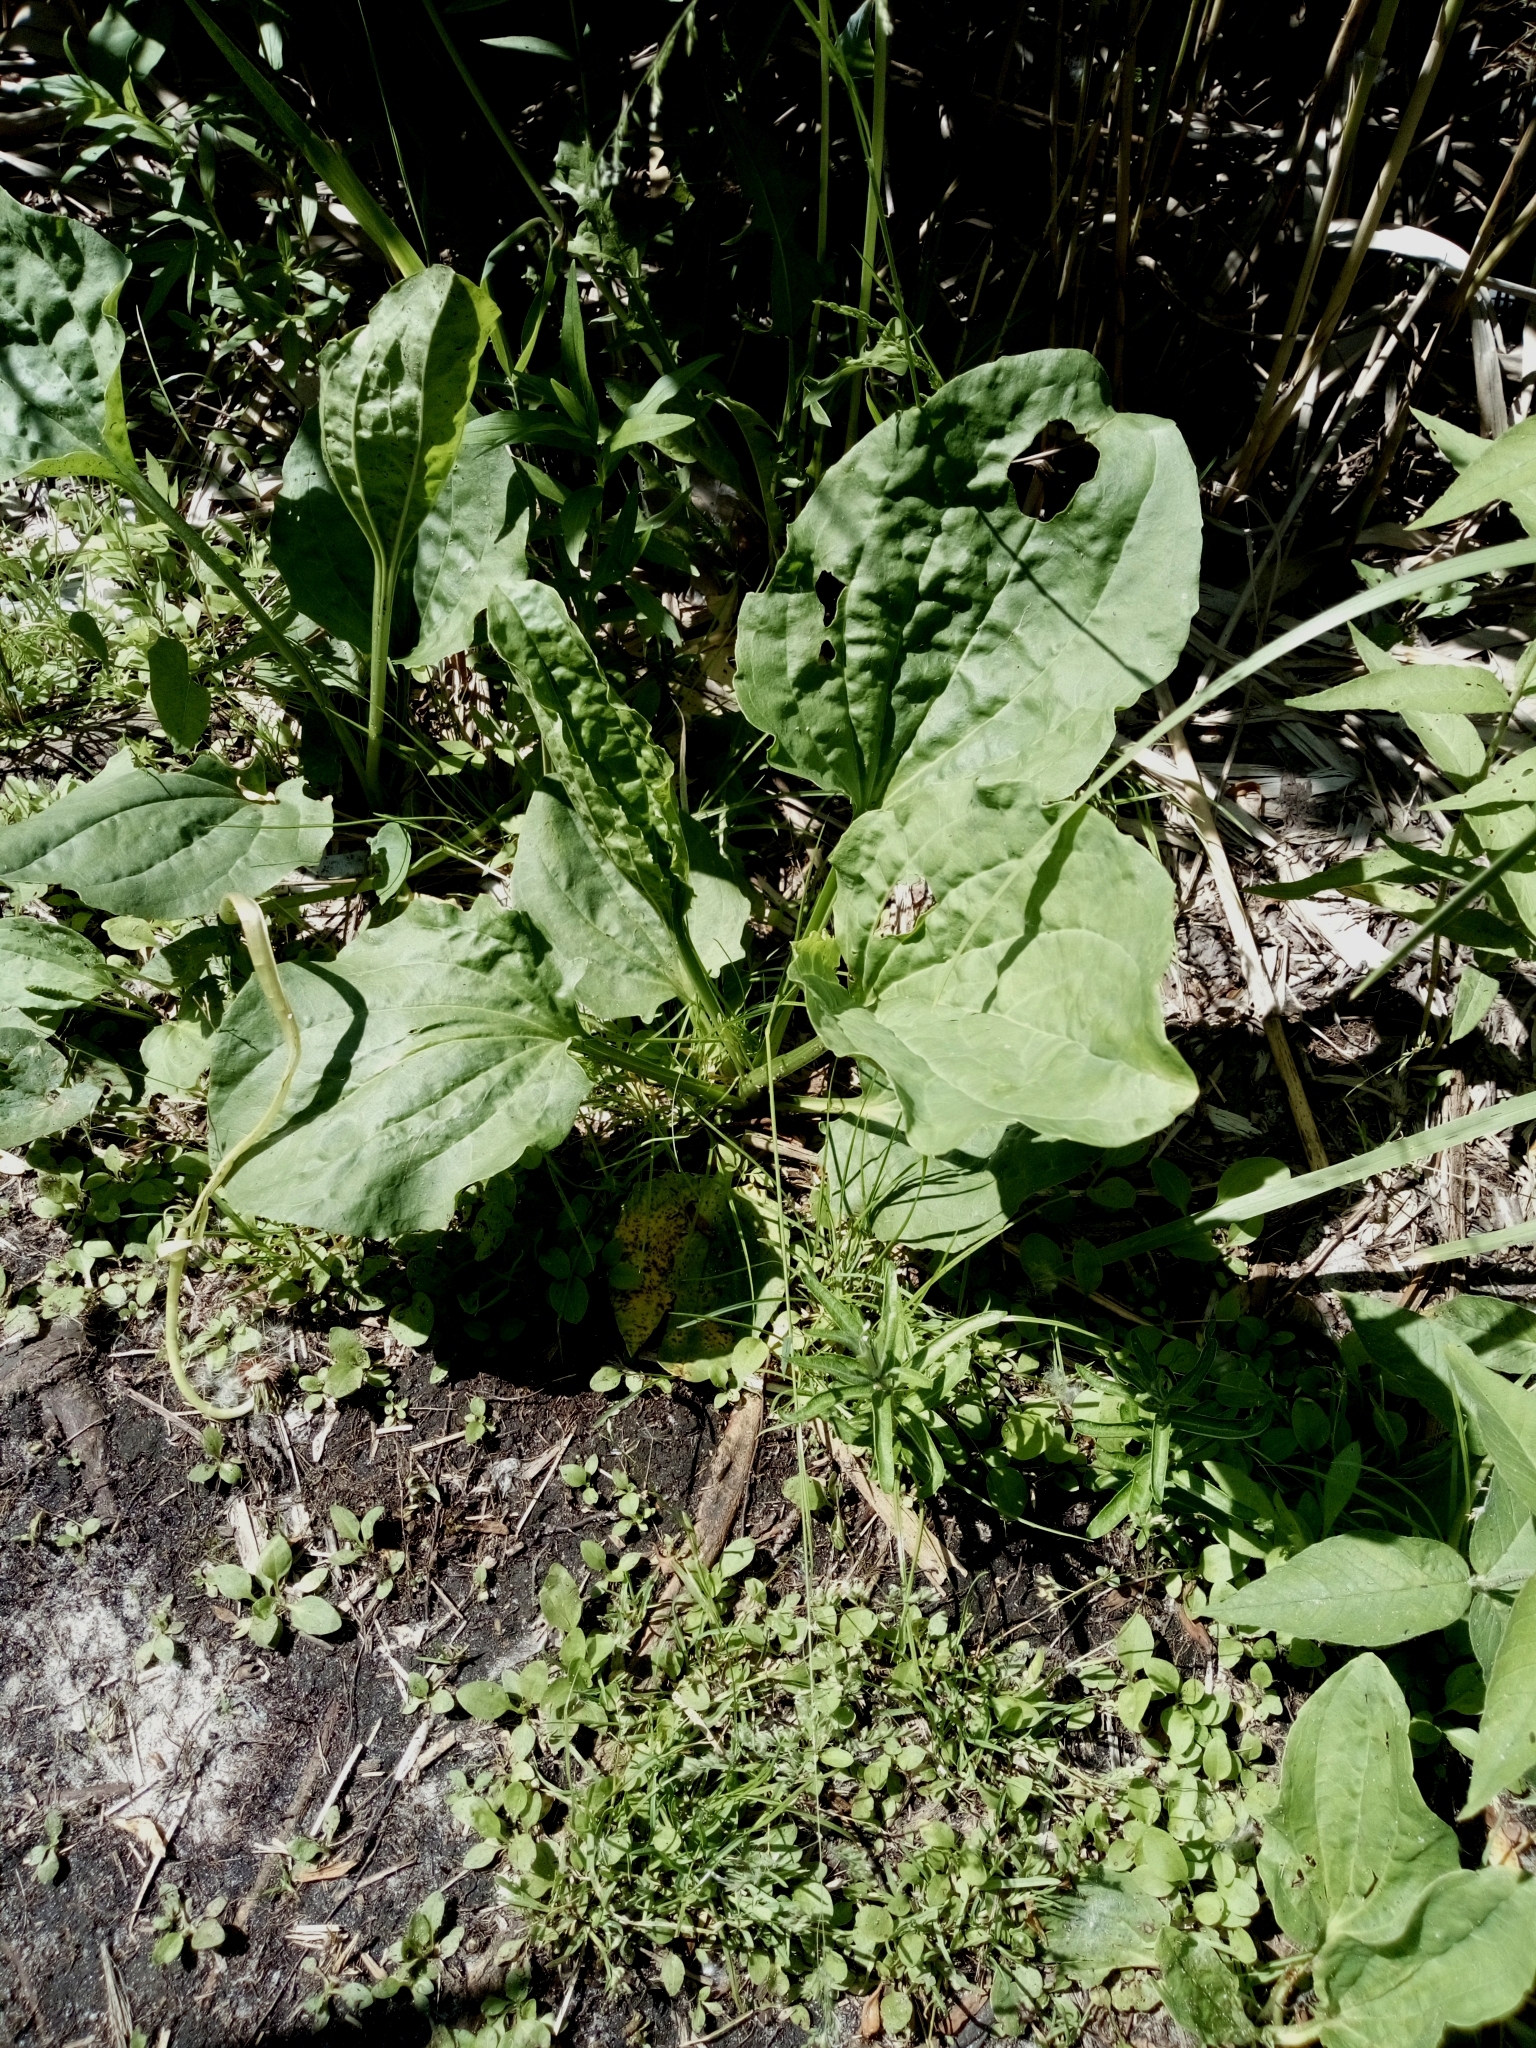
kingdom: Plantae
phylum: Tracheophyta
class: Magnoliopsida
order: Lamiales
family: Plantaginaceae
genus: Plantago
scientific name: Plantago major
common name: Common plantain
